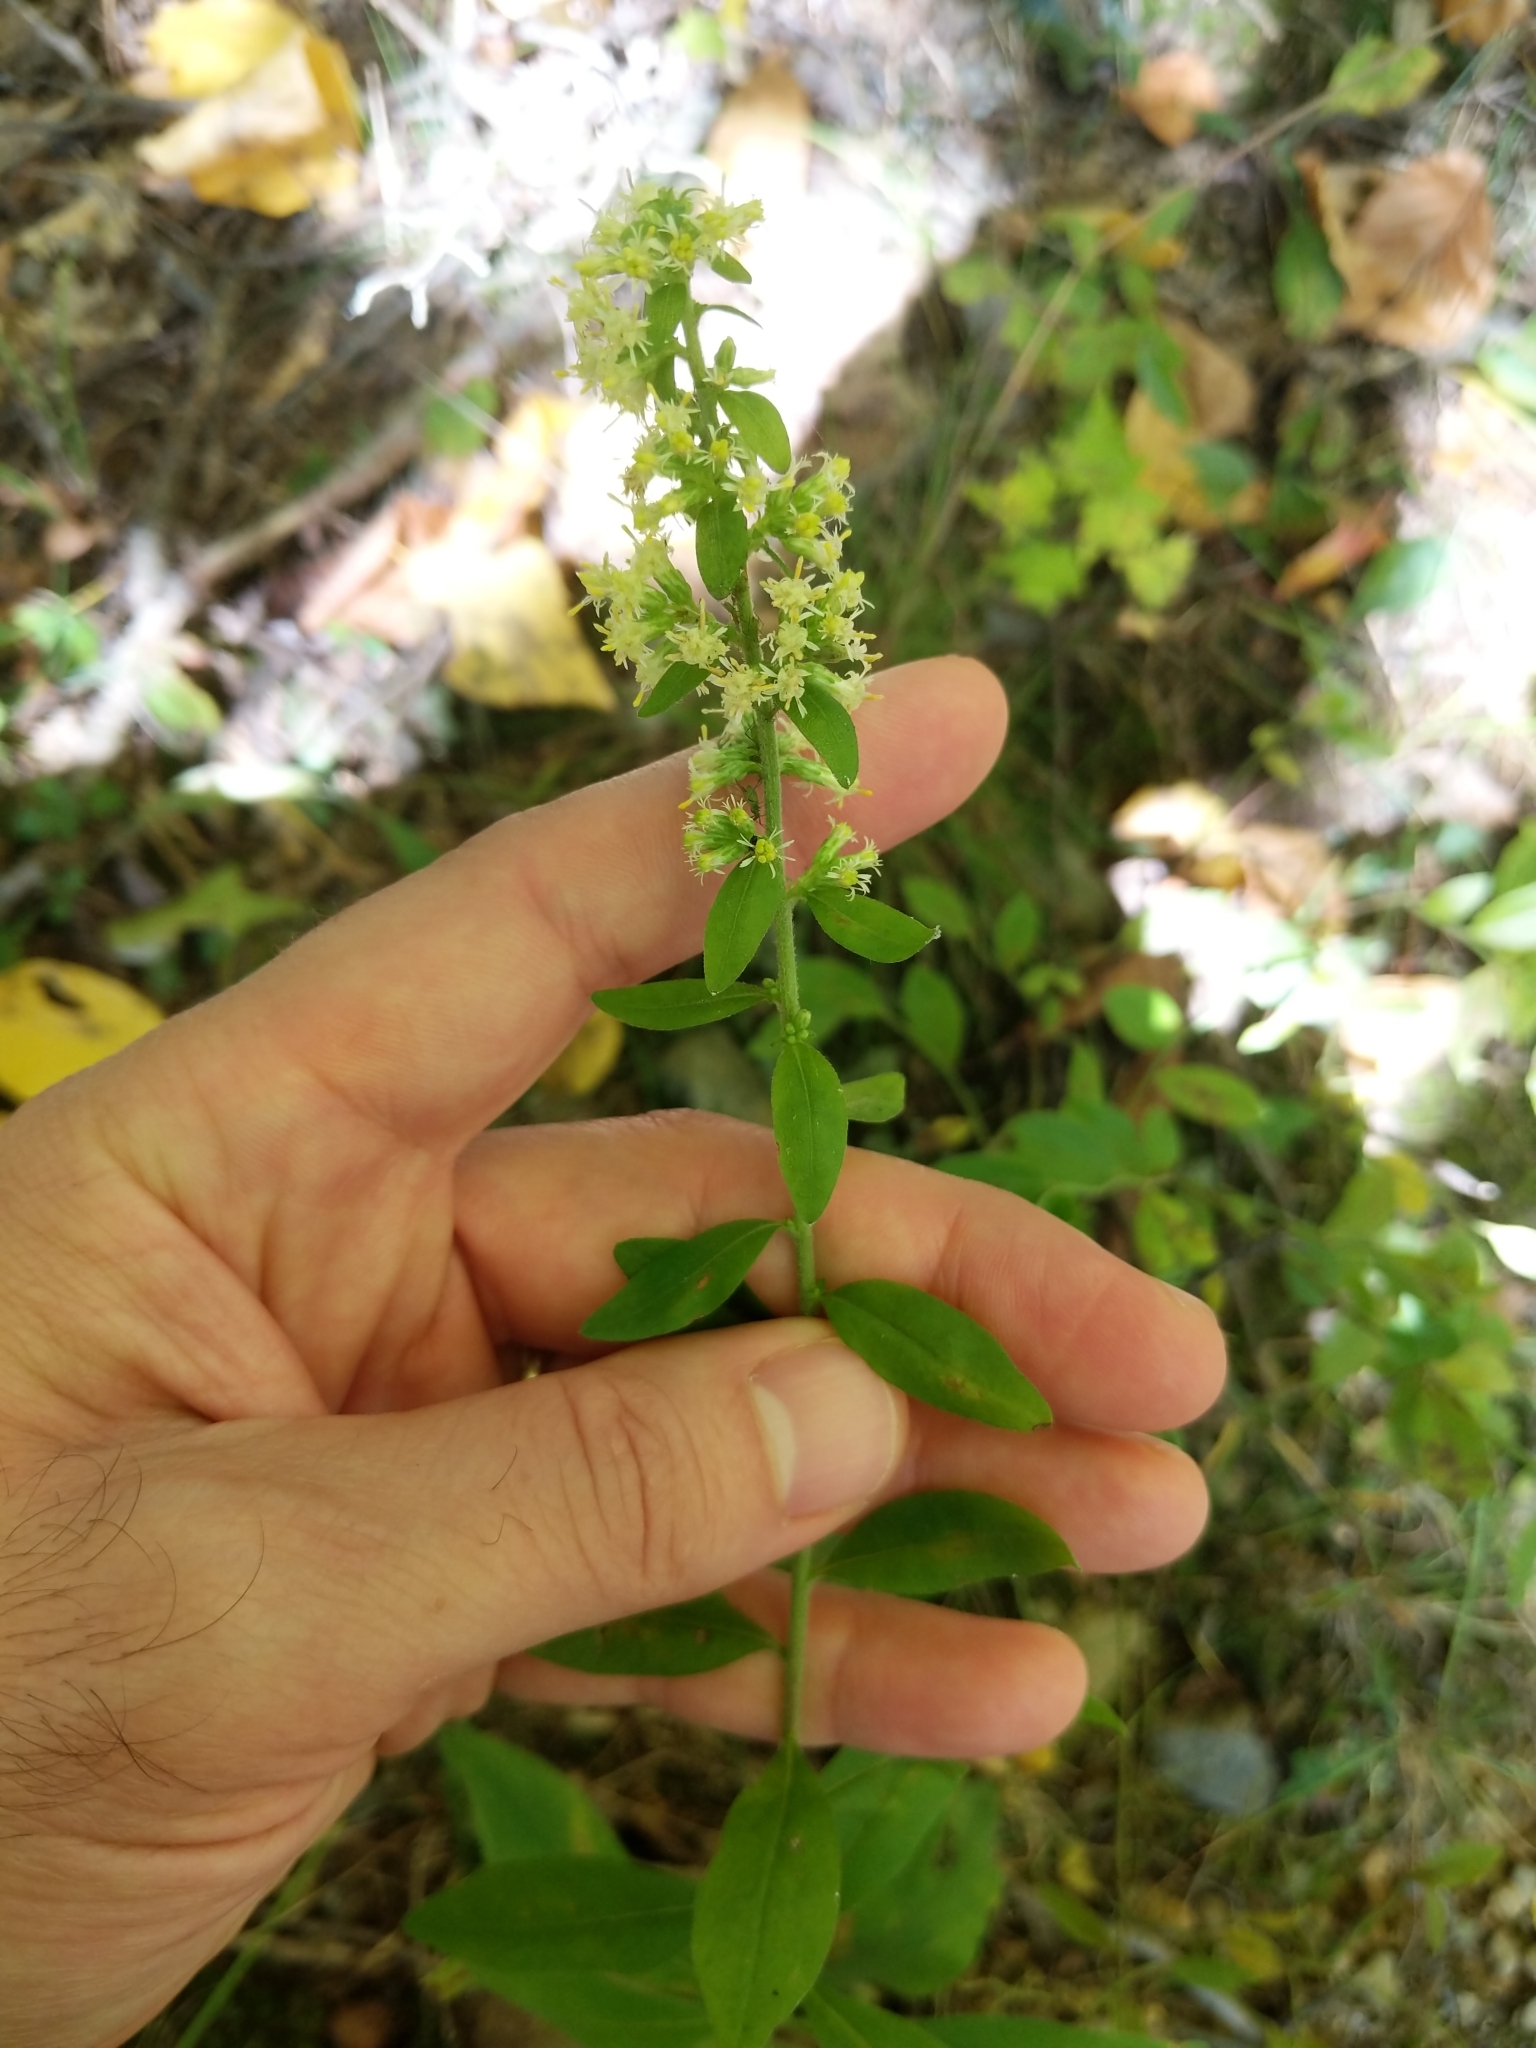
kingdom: Plantae
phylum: Tracheophyta
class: Magnoliopsida
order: Asterales
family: Asteraceae
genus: Solidago
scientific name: Solidago bicolor
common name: Silverrod
